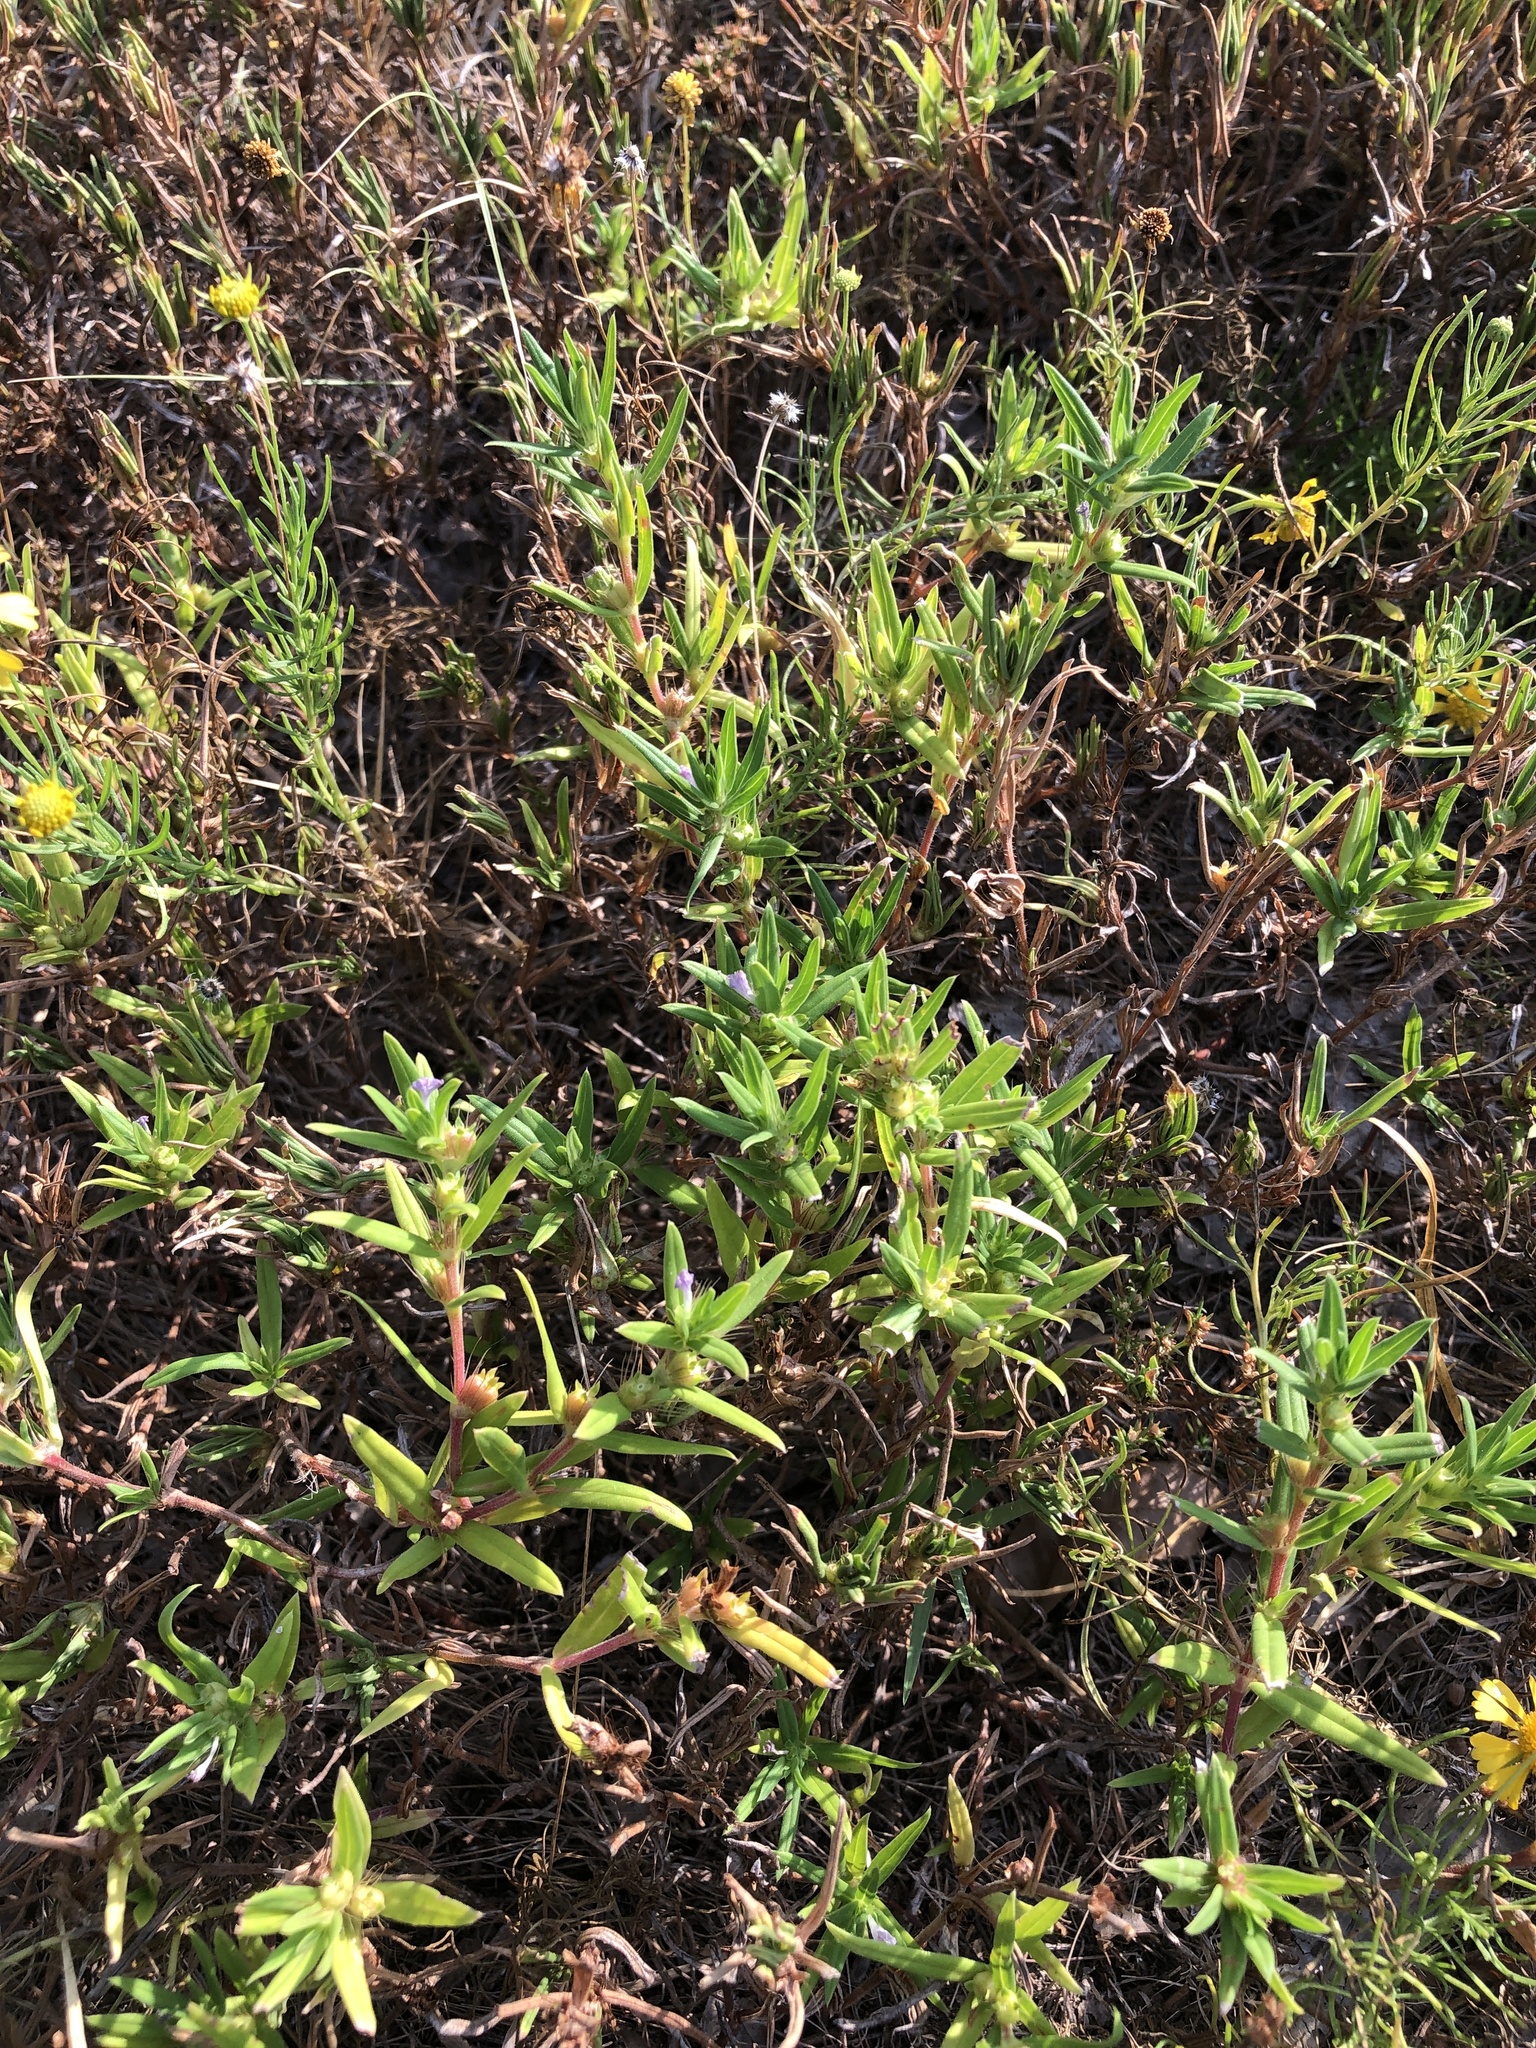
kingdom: Plantae
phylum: Tracheophyta
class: Magnoliopsida
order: Gentianales
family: Rubiaceae
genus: Hexasepalum
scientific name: Hexasepalum teres
